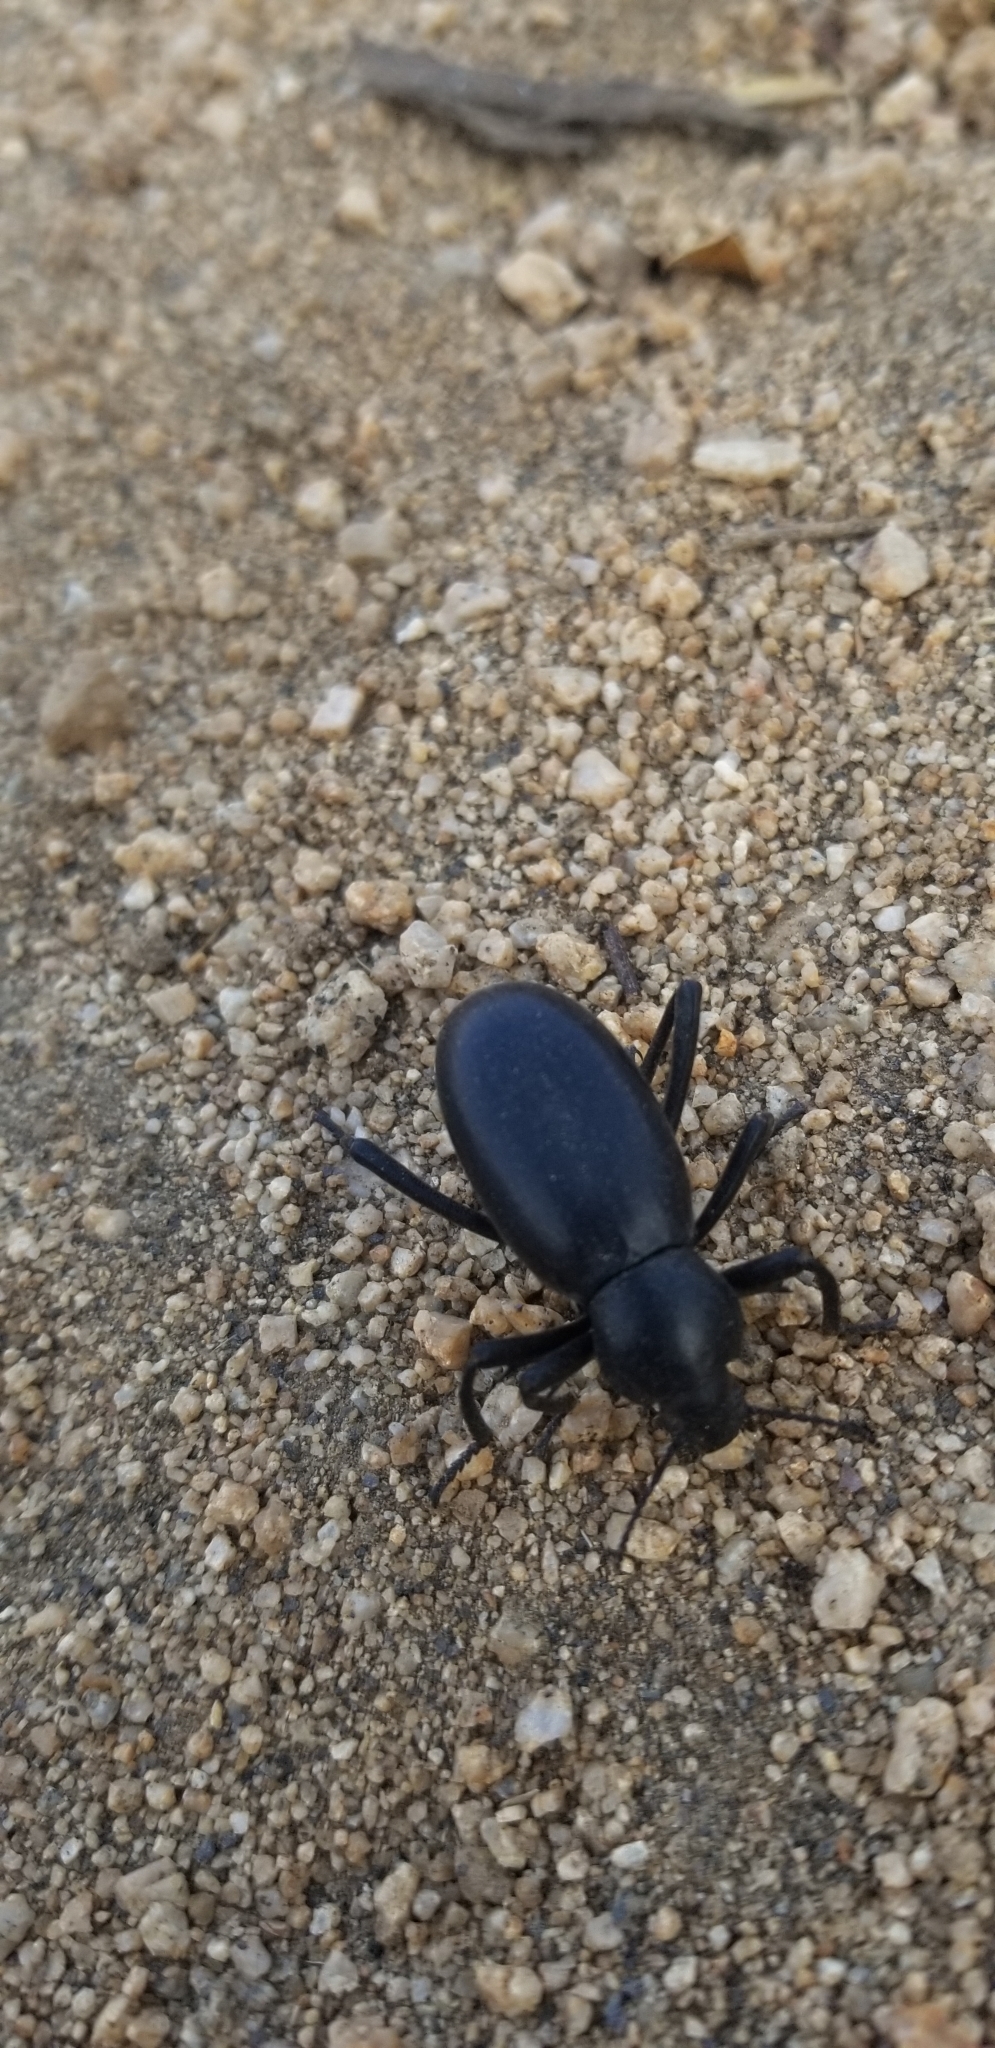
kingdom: Animalia
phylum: Arthropoda
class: Insecta
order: Coleoptera
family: Tenebrionidae
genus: Eleodes
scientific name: Eleodes armata
